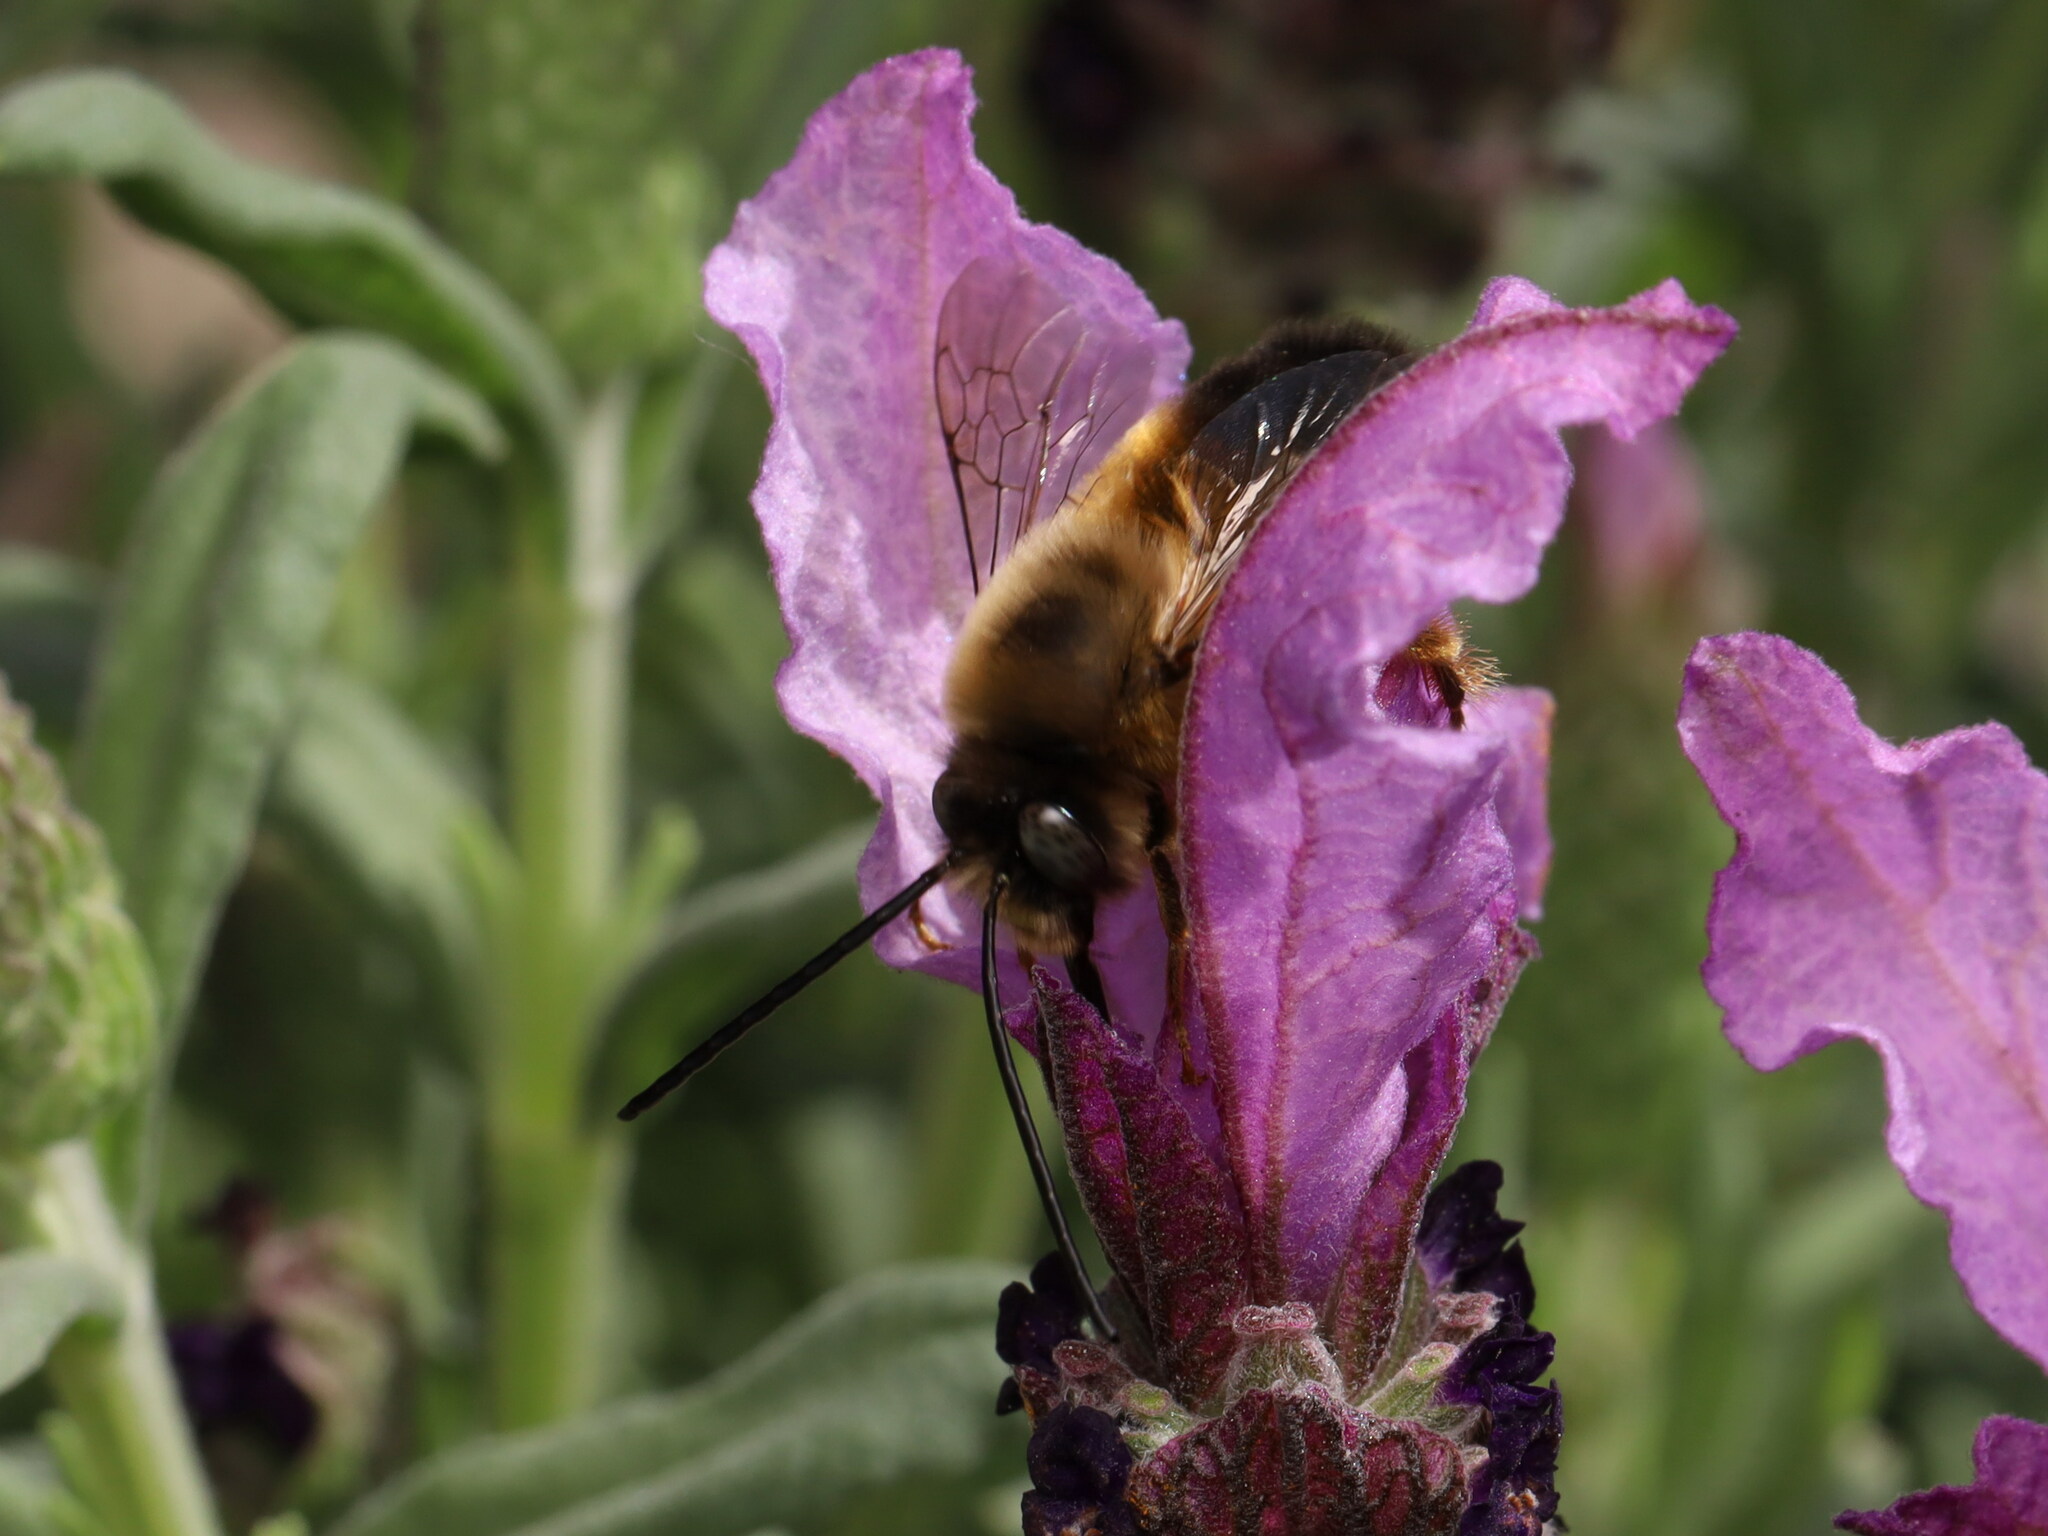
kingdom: Animalia
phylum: Arthropoda
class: Insecta
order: Hymenoptera
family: Apidae
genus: Eucera
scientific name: Eucera nigrilabris
